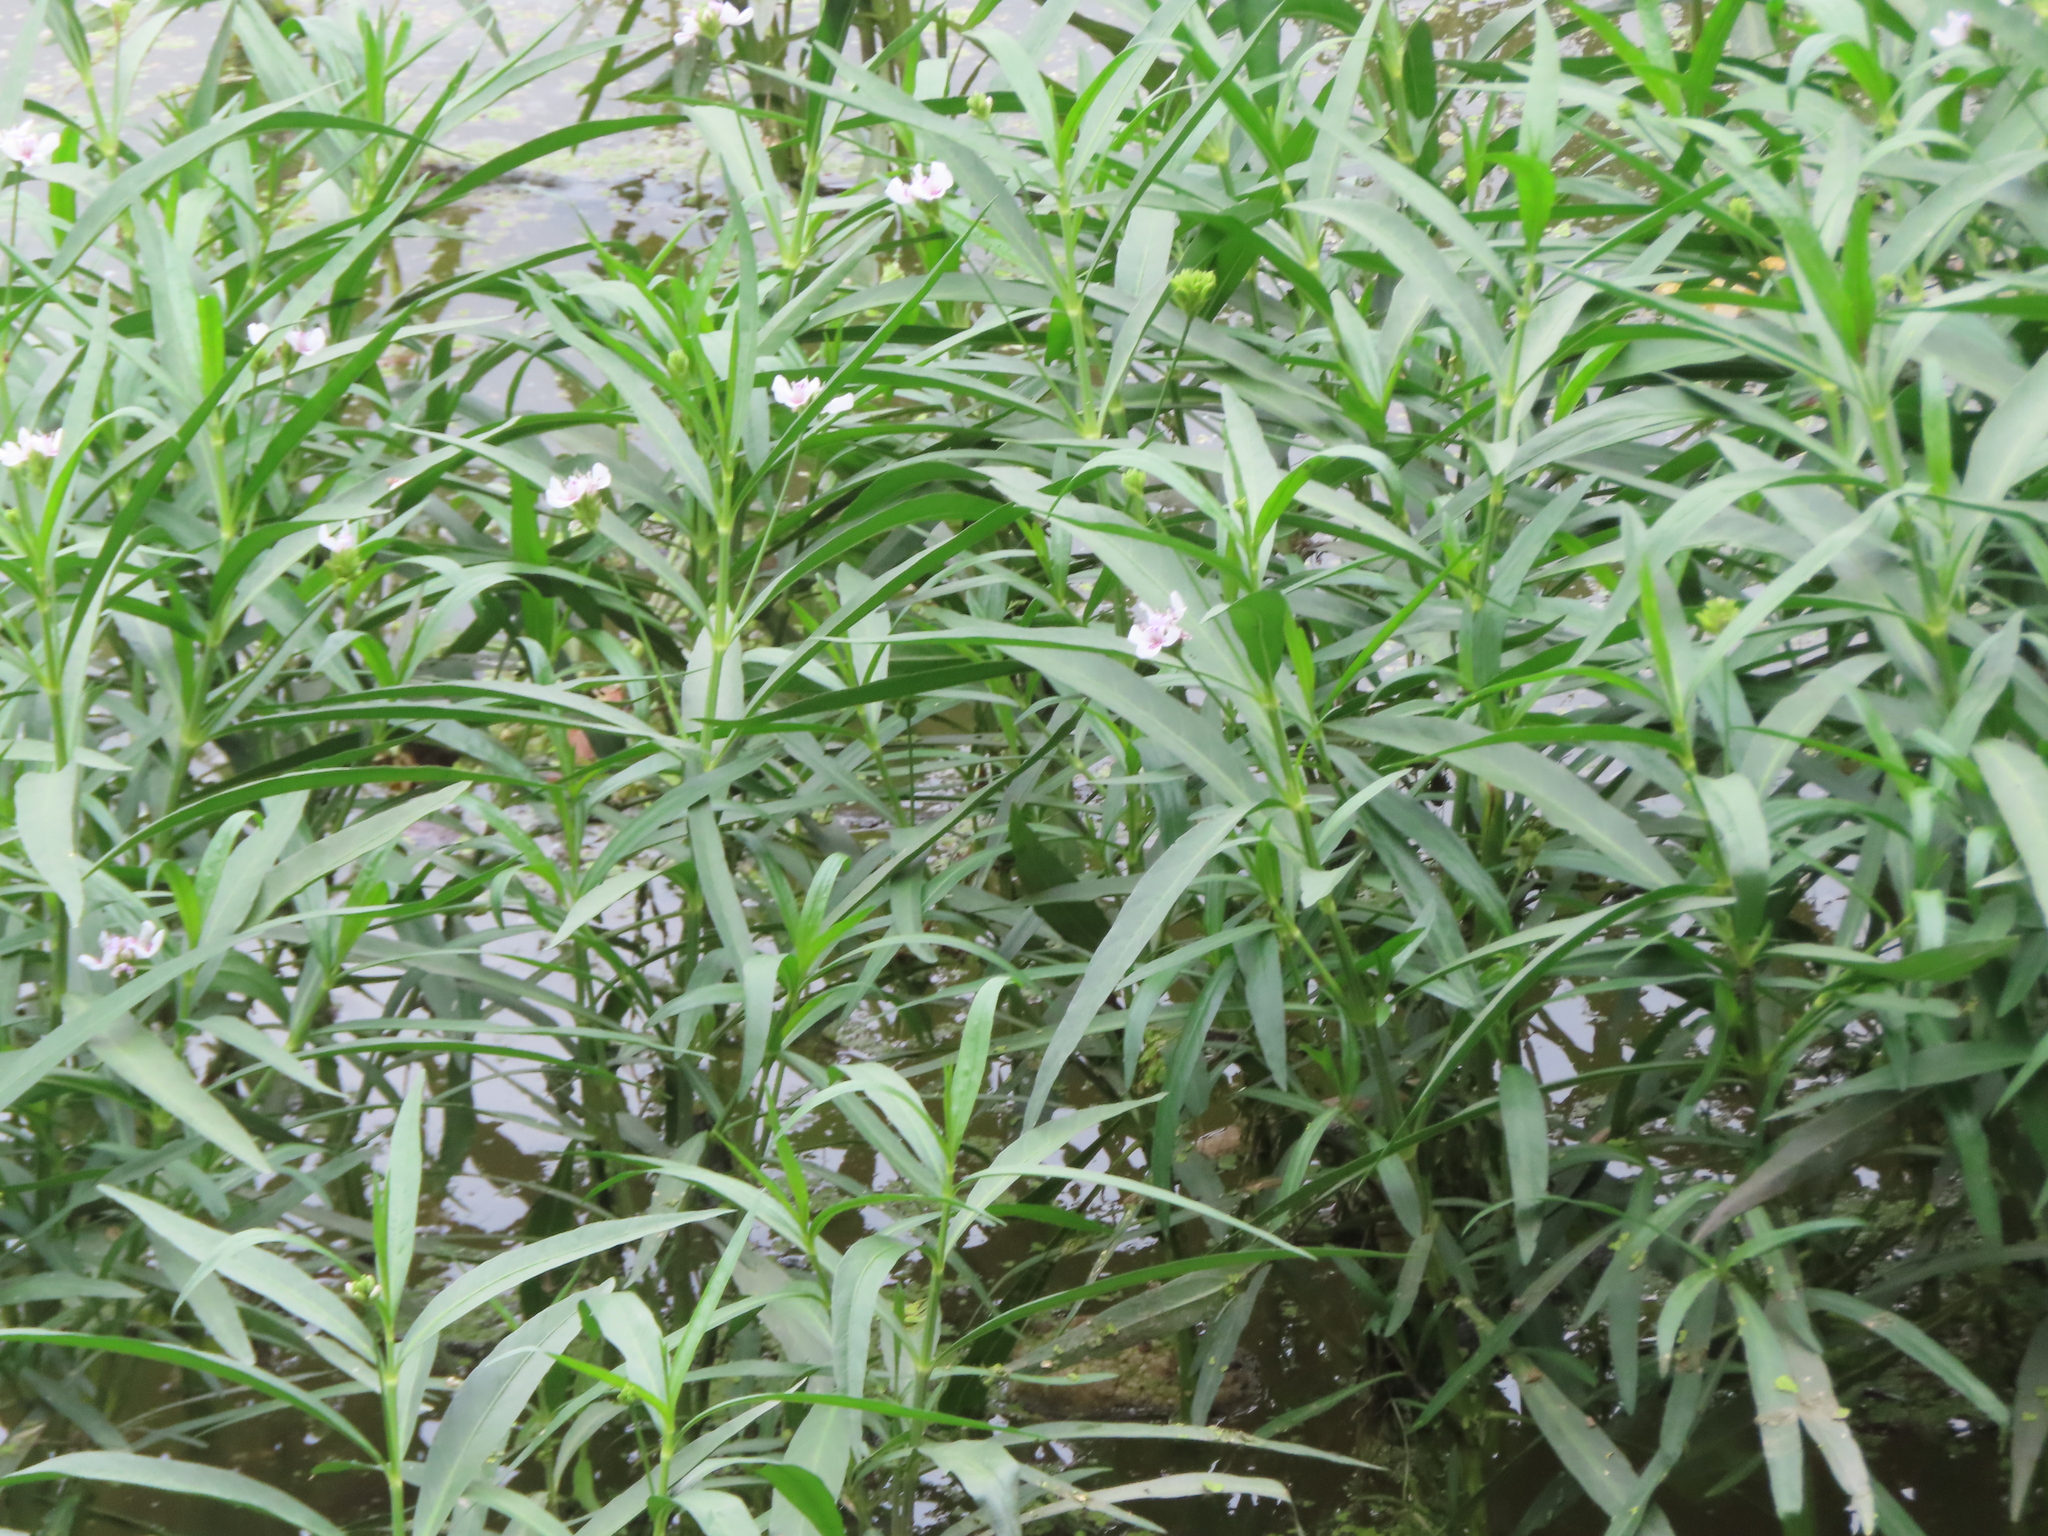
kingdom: Plantae
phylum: Tracheophyta
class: Magnoliopsida
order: Lamiales
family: Acanthaceae
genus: Dianthera
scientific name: Dianthera americana
